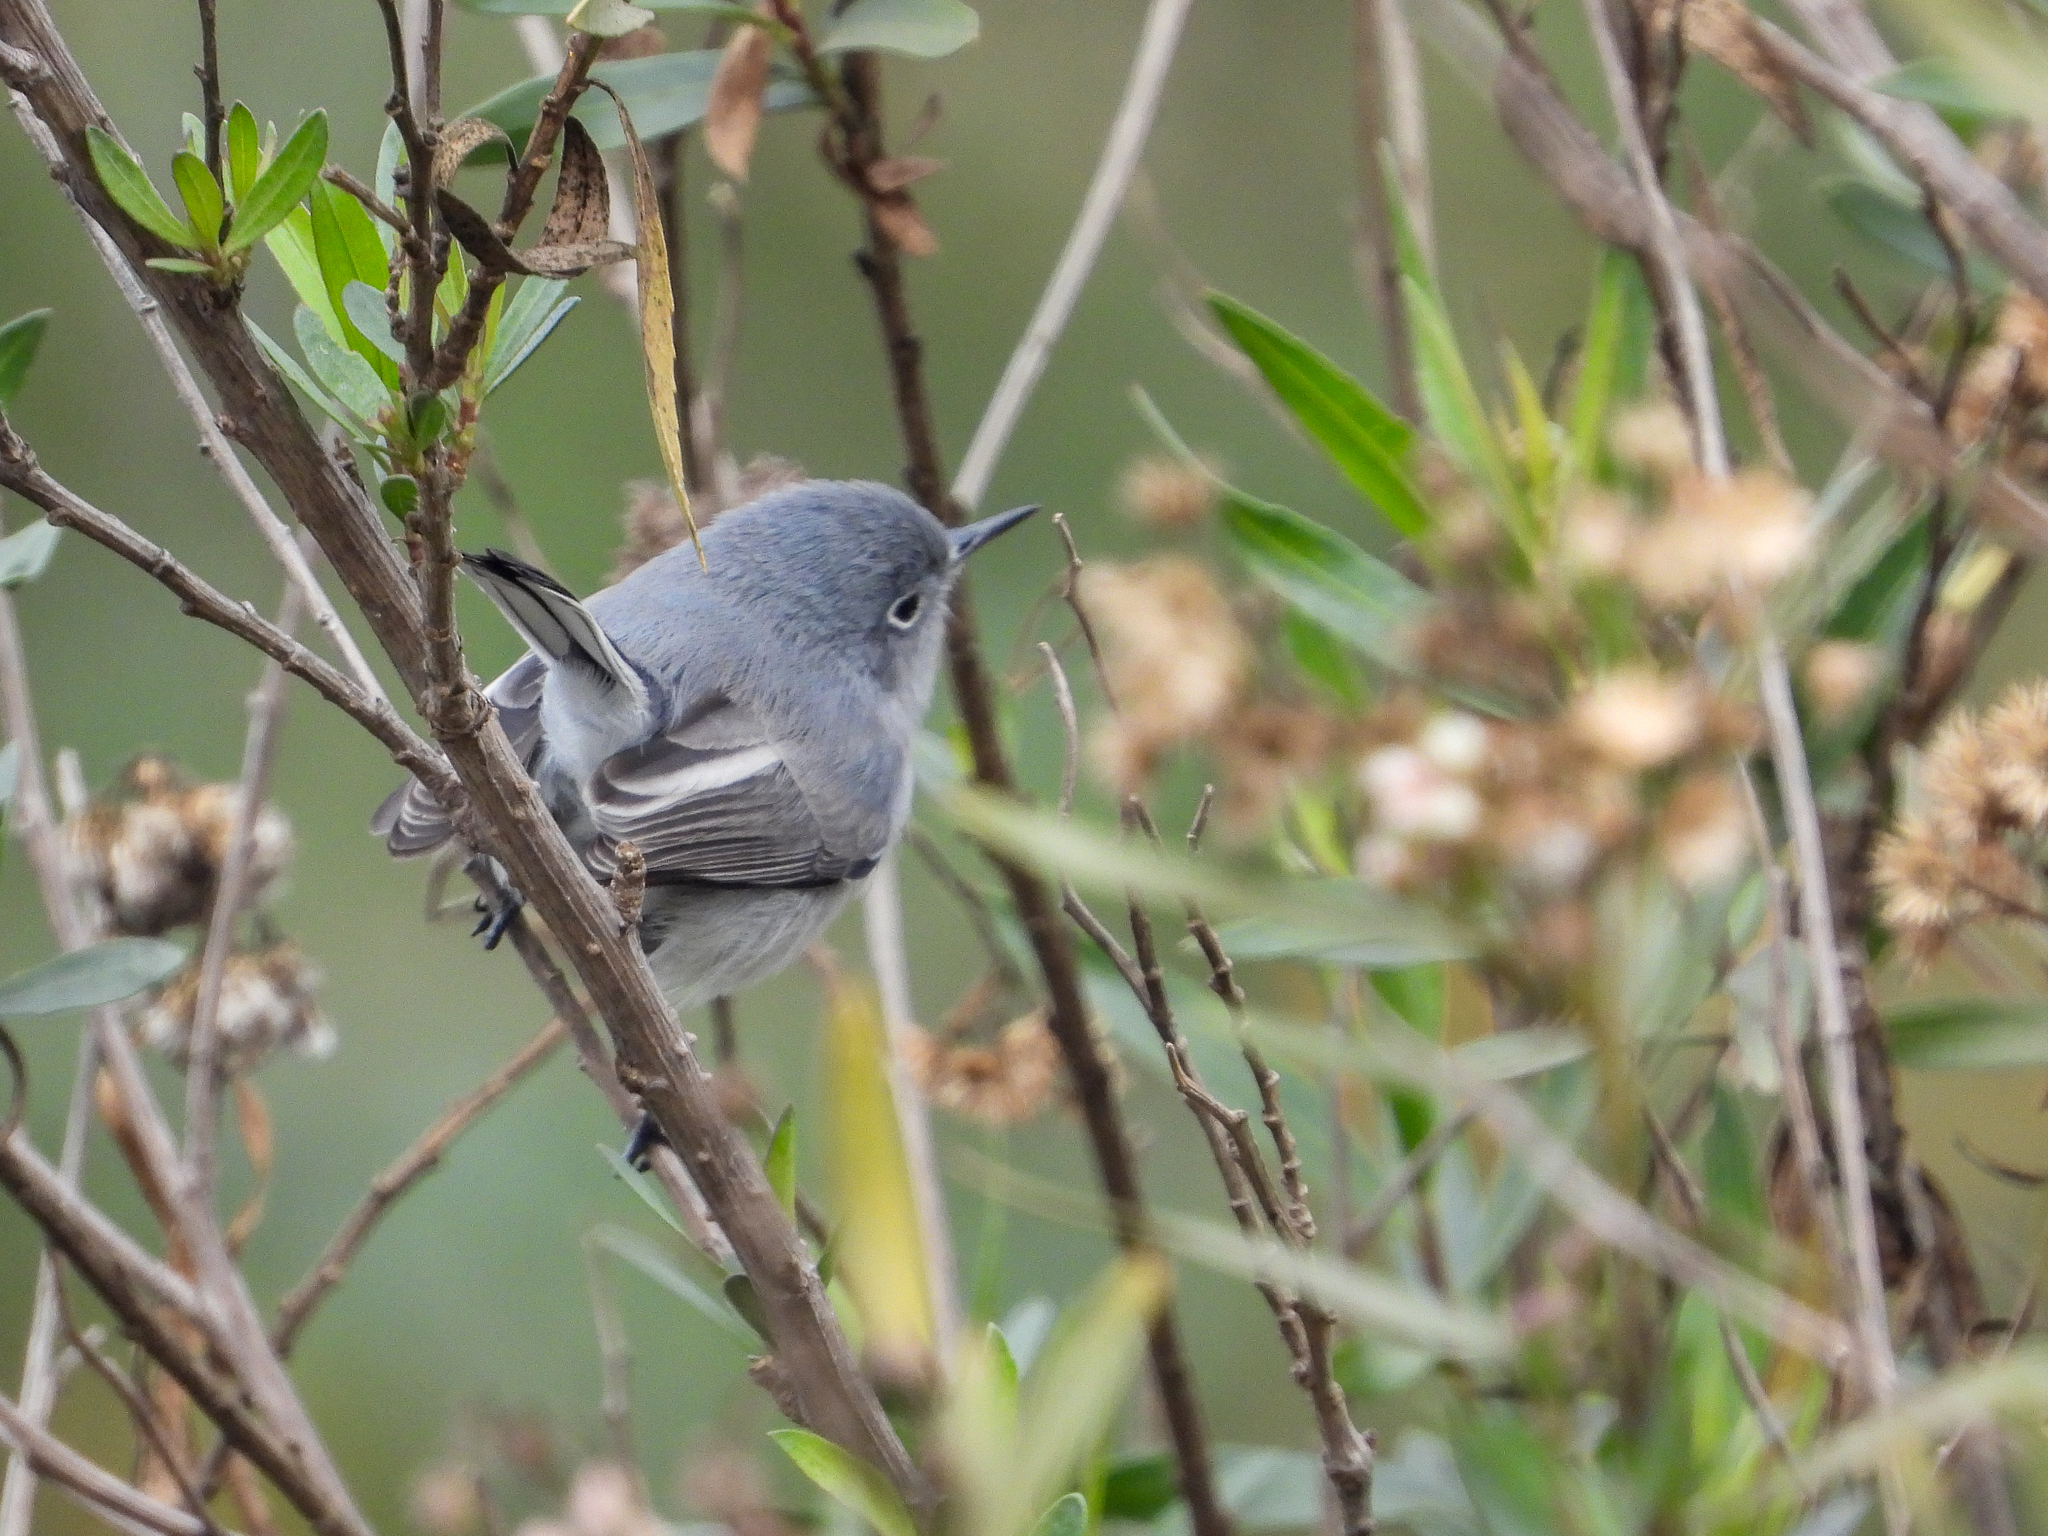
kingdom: Animalia
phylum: Chordata
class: Aves
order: Passeriformes
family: Polioptilidae
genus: Polioptila
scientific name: Polioptila caerulea
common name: Blue-gray gnatcatcher
